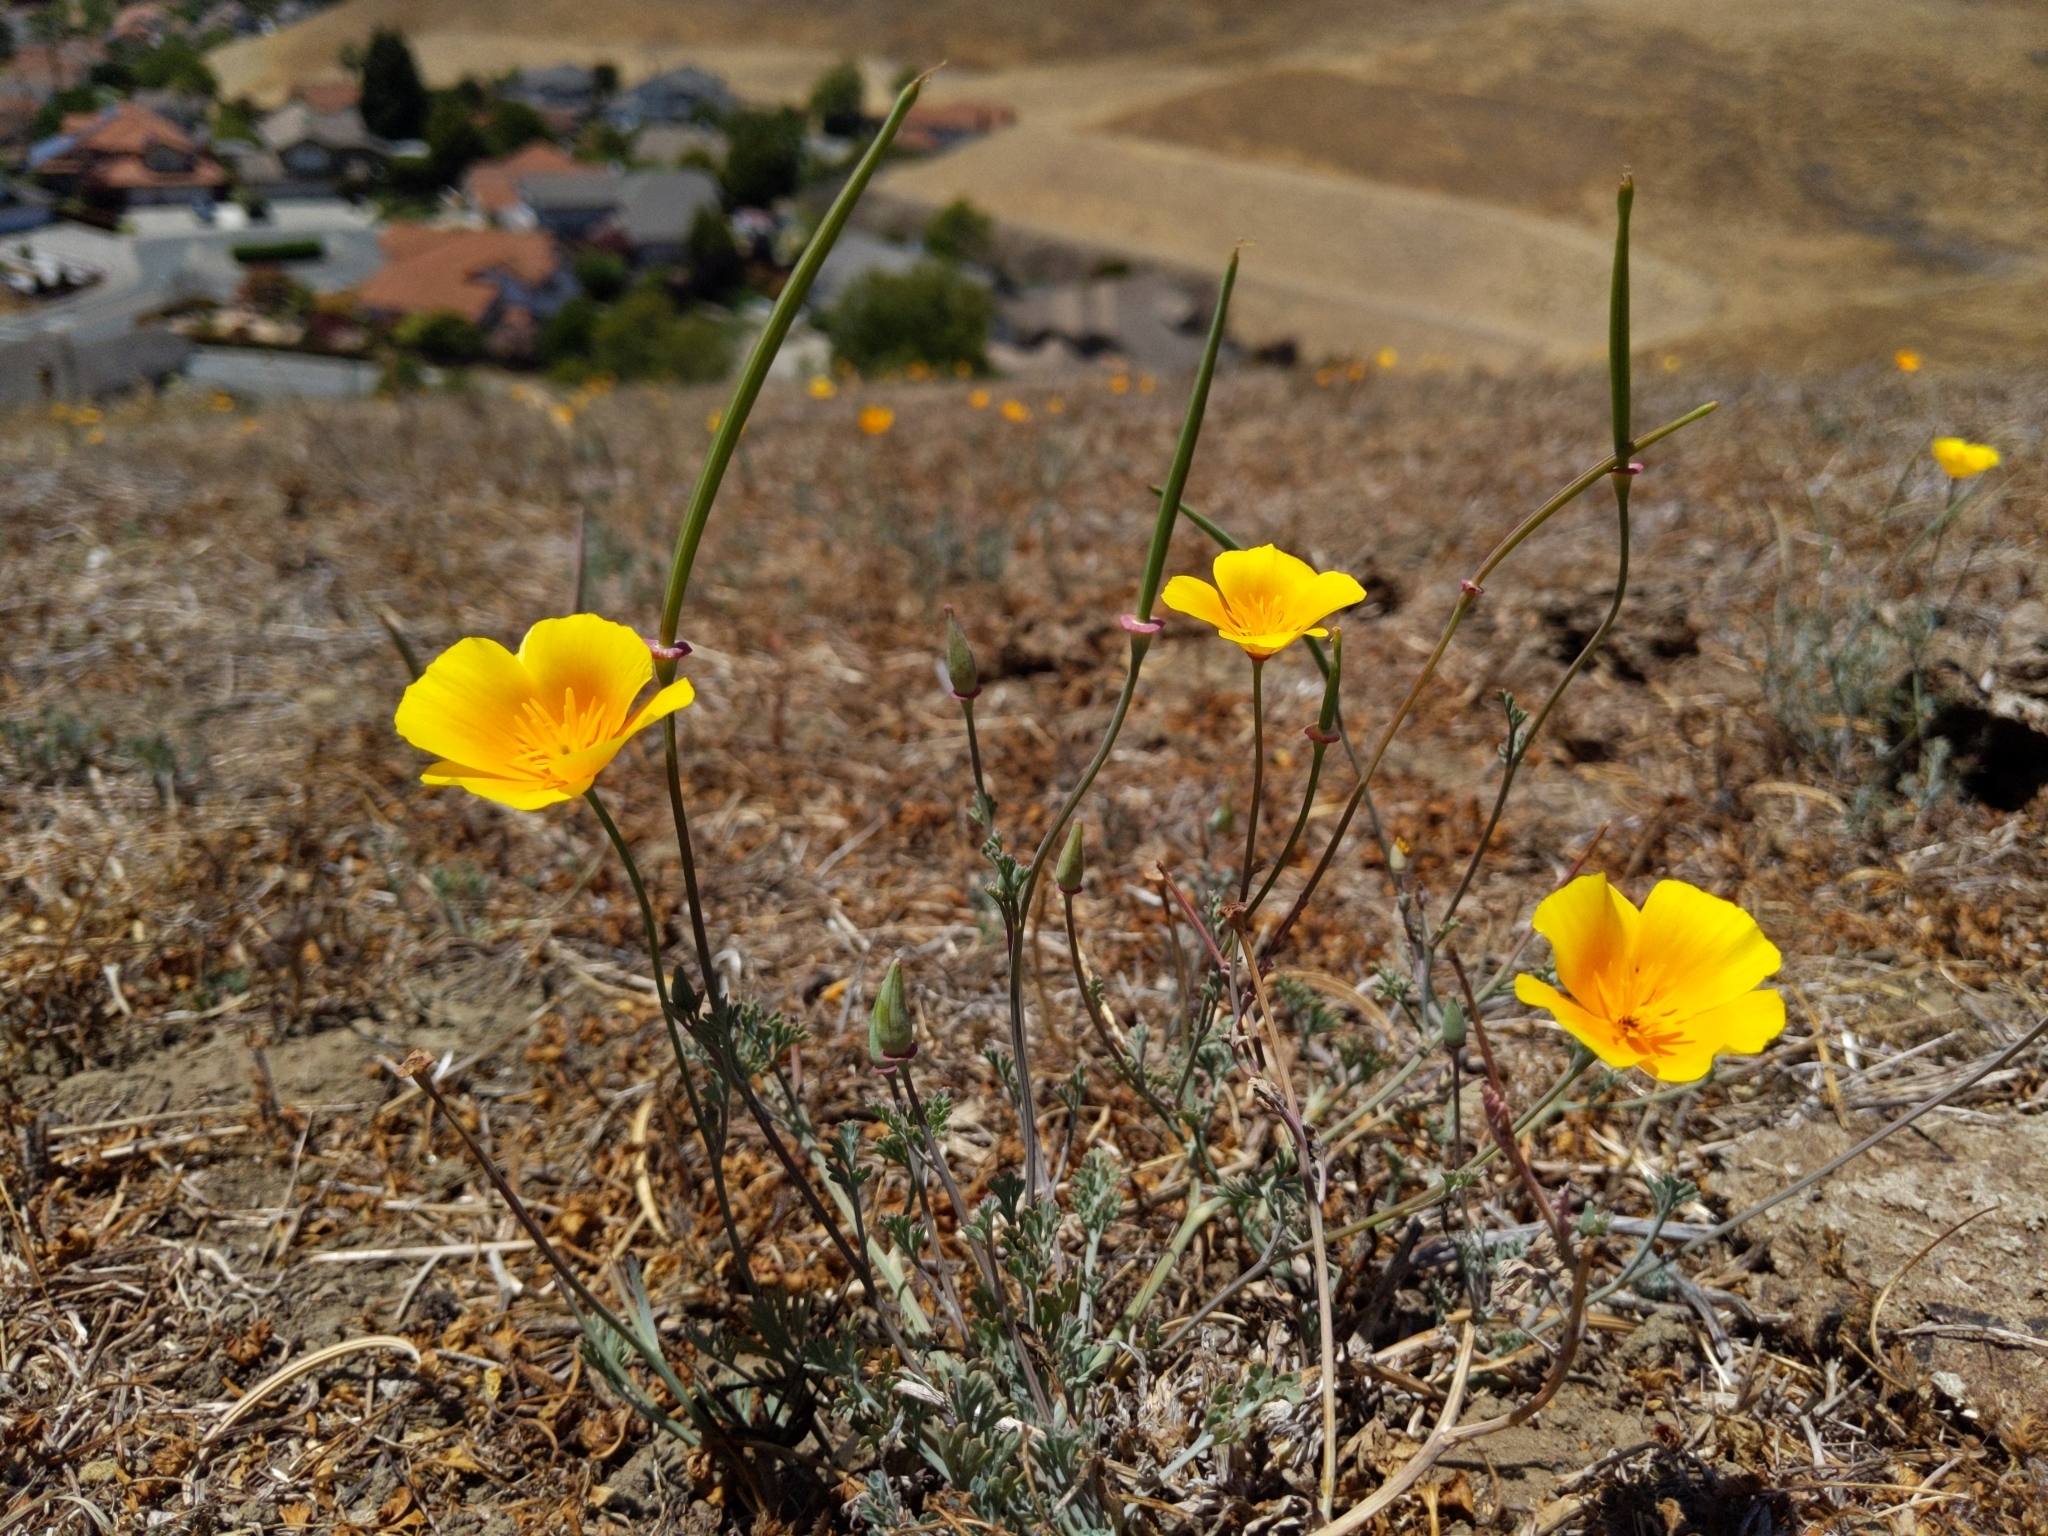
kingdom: Plantae
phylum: Tracheophyta
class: Magnoliopsida
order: Ranunculales
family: Papaveraceae
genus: Eschscholzia
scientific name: Eschscholzia californica
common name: California poppy
